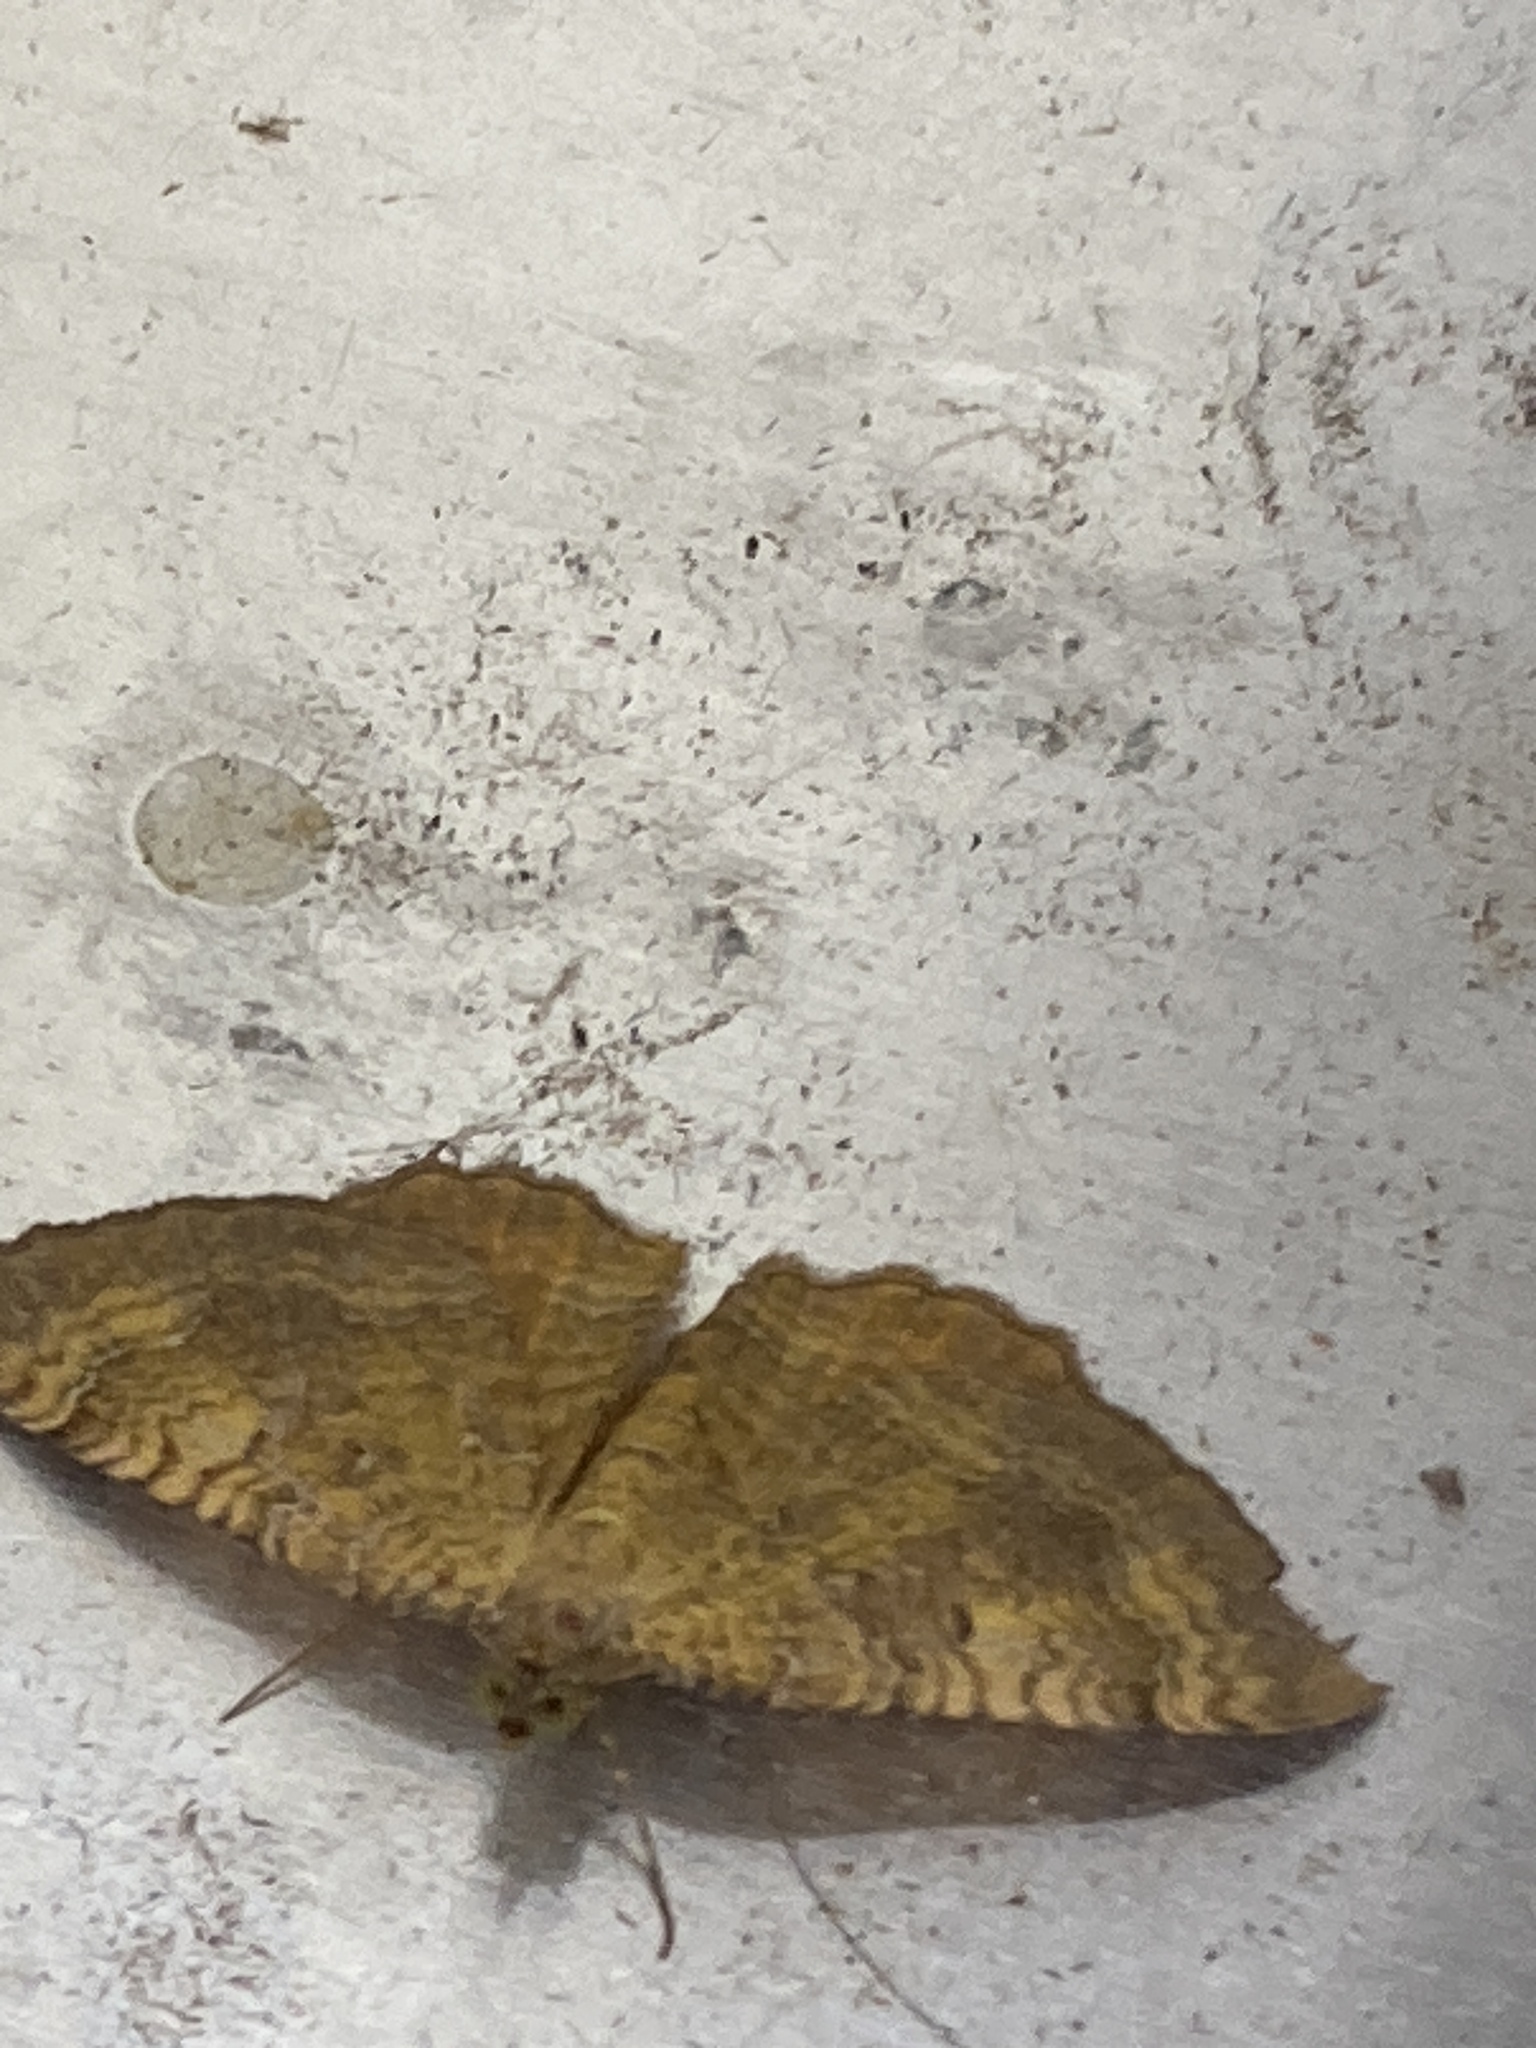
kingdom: Animalia
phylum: Arthropoda
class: Insecta
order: Lepidoptera
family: Geometridae
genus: Camptogramma
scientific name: Camptogramma bilineata
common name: Yellow shell
